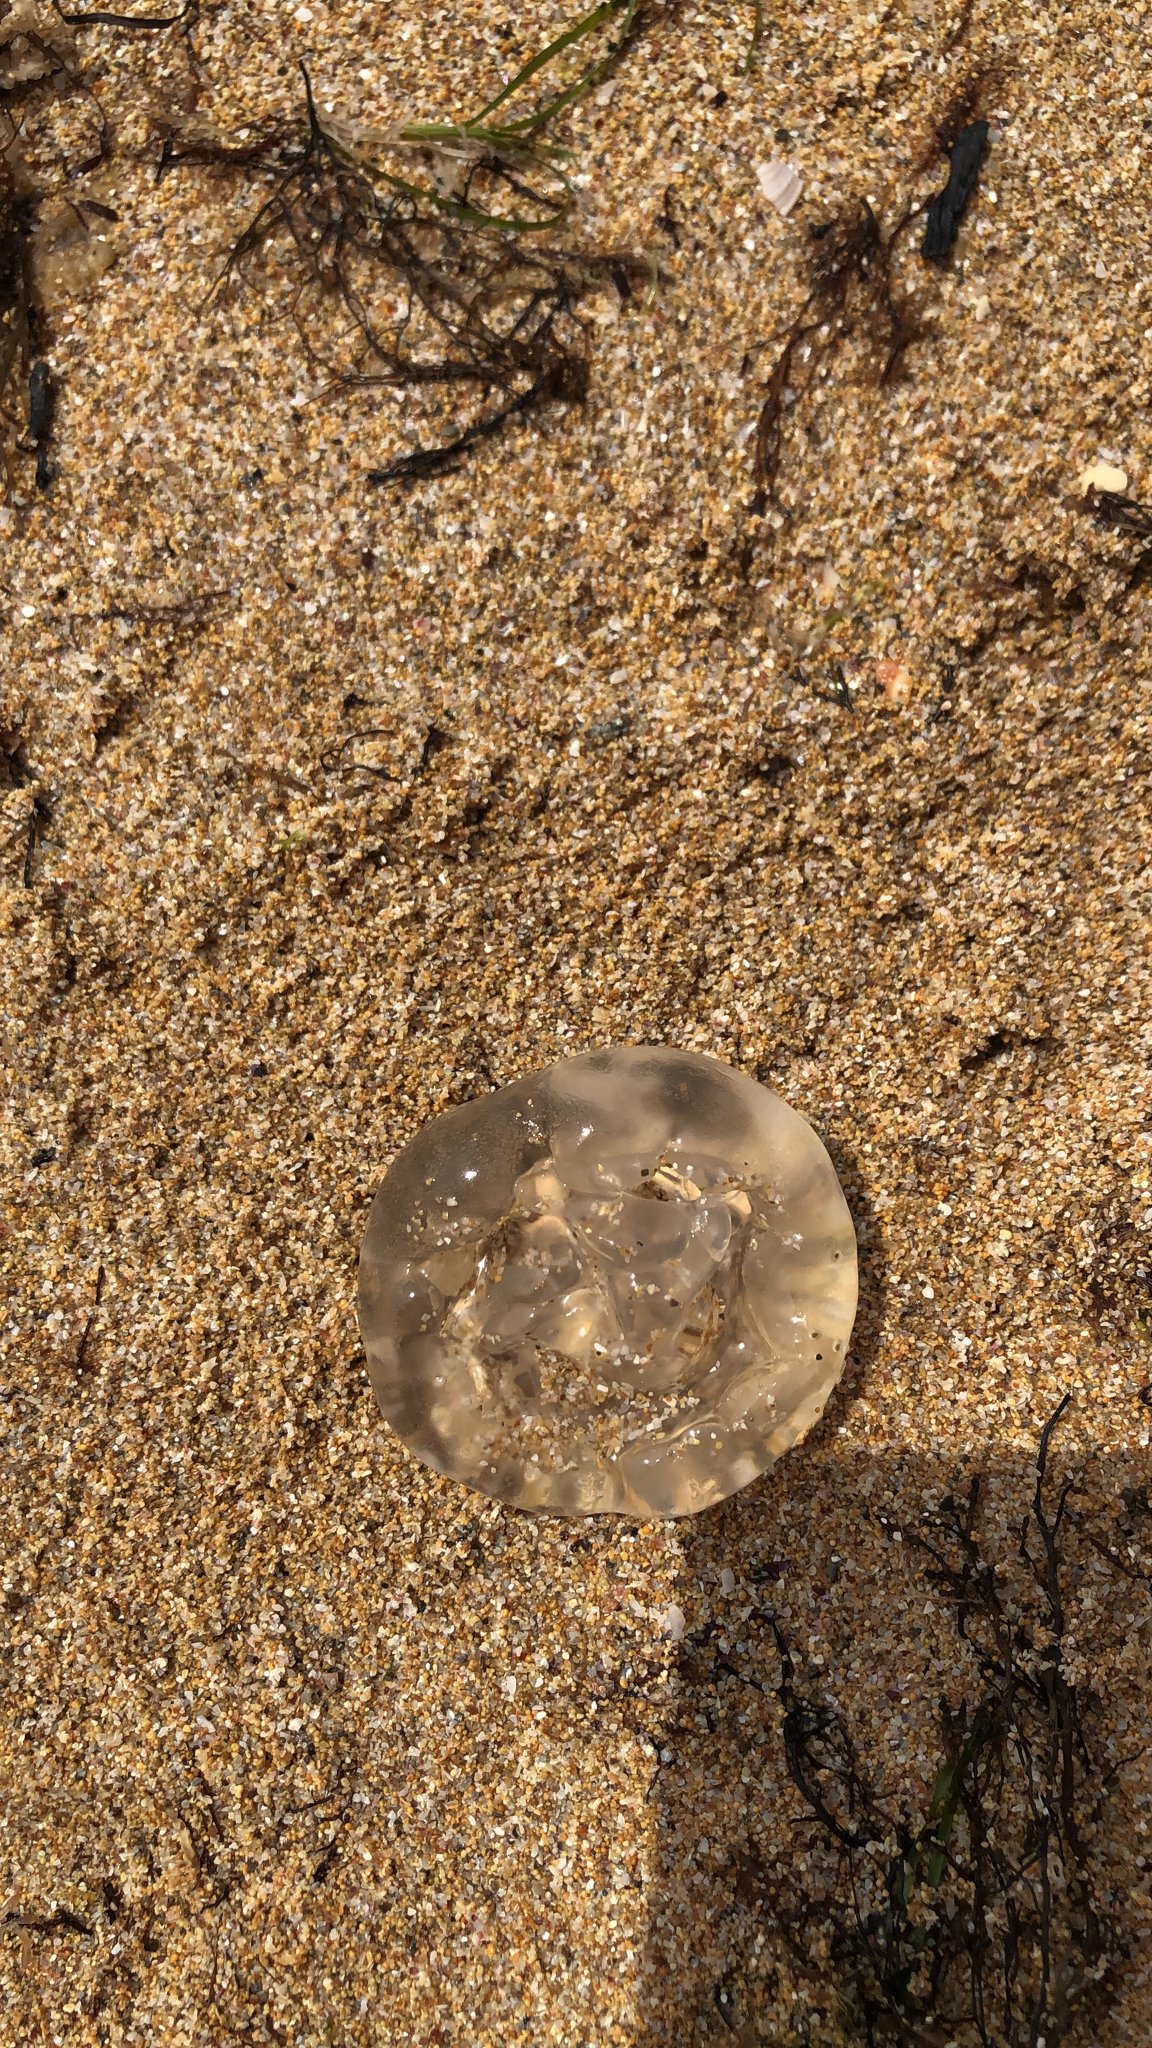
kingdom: Animalia
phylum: Cnidaria
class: Scyphozoa
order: Semaeostomeae
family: Ulmaridae
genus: Aurelia
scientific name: Aurelia aurita
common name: Moon jellyfish
